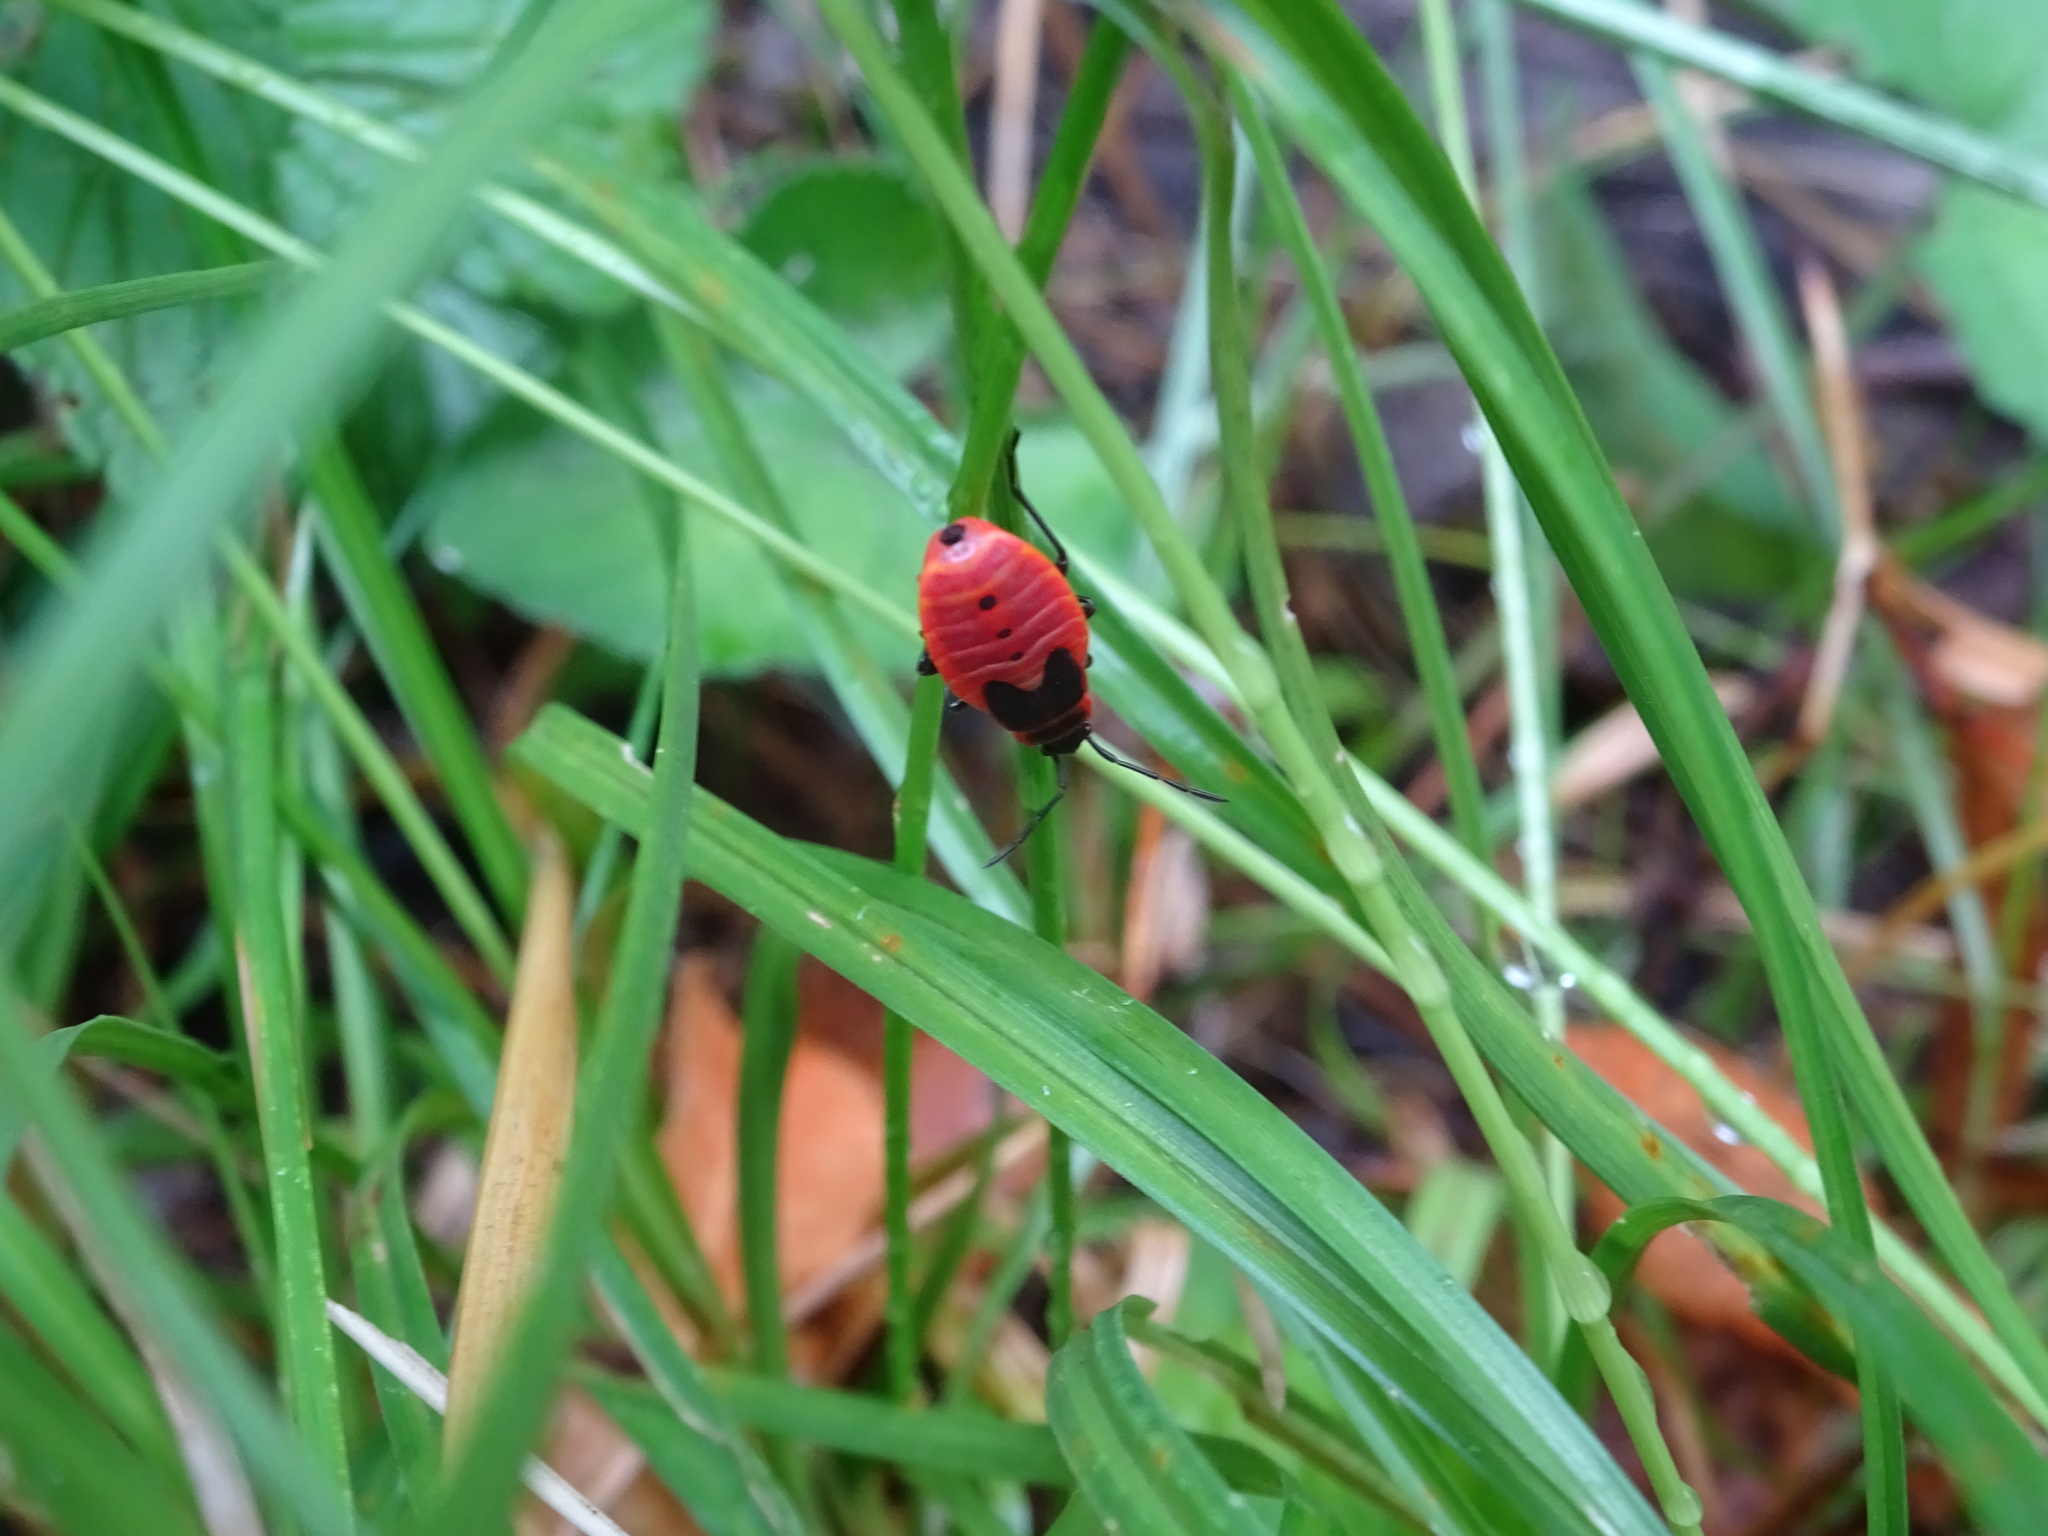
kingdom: Animalia
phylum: Arthropoda
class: Insecta
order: Hemiptera
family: Pyrrhocoridae
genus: Pyrrhocoris
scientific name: Pyrrhocoris apterus
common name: Firebug
